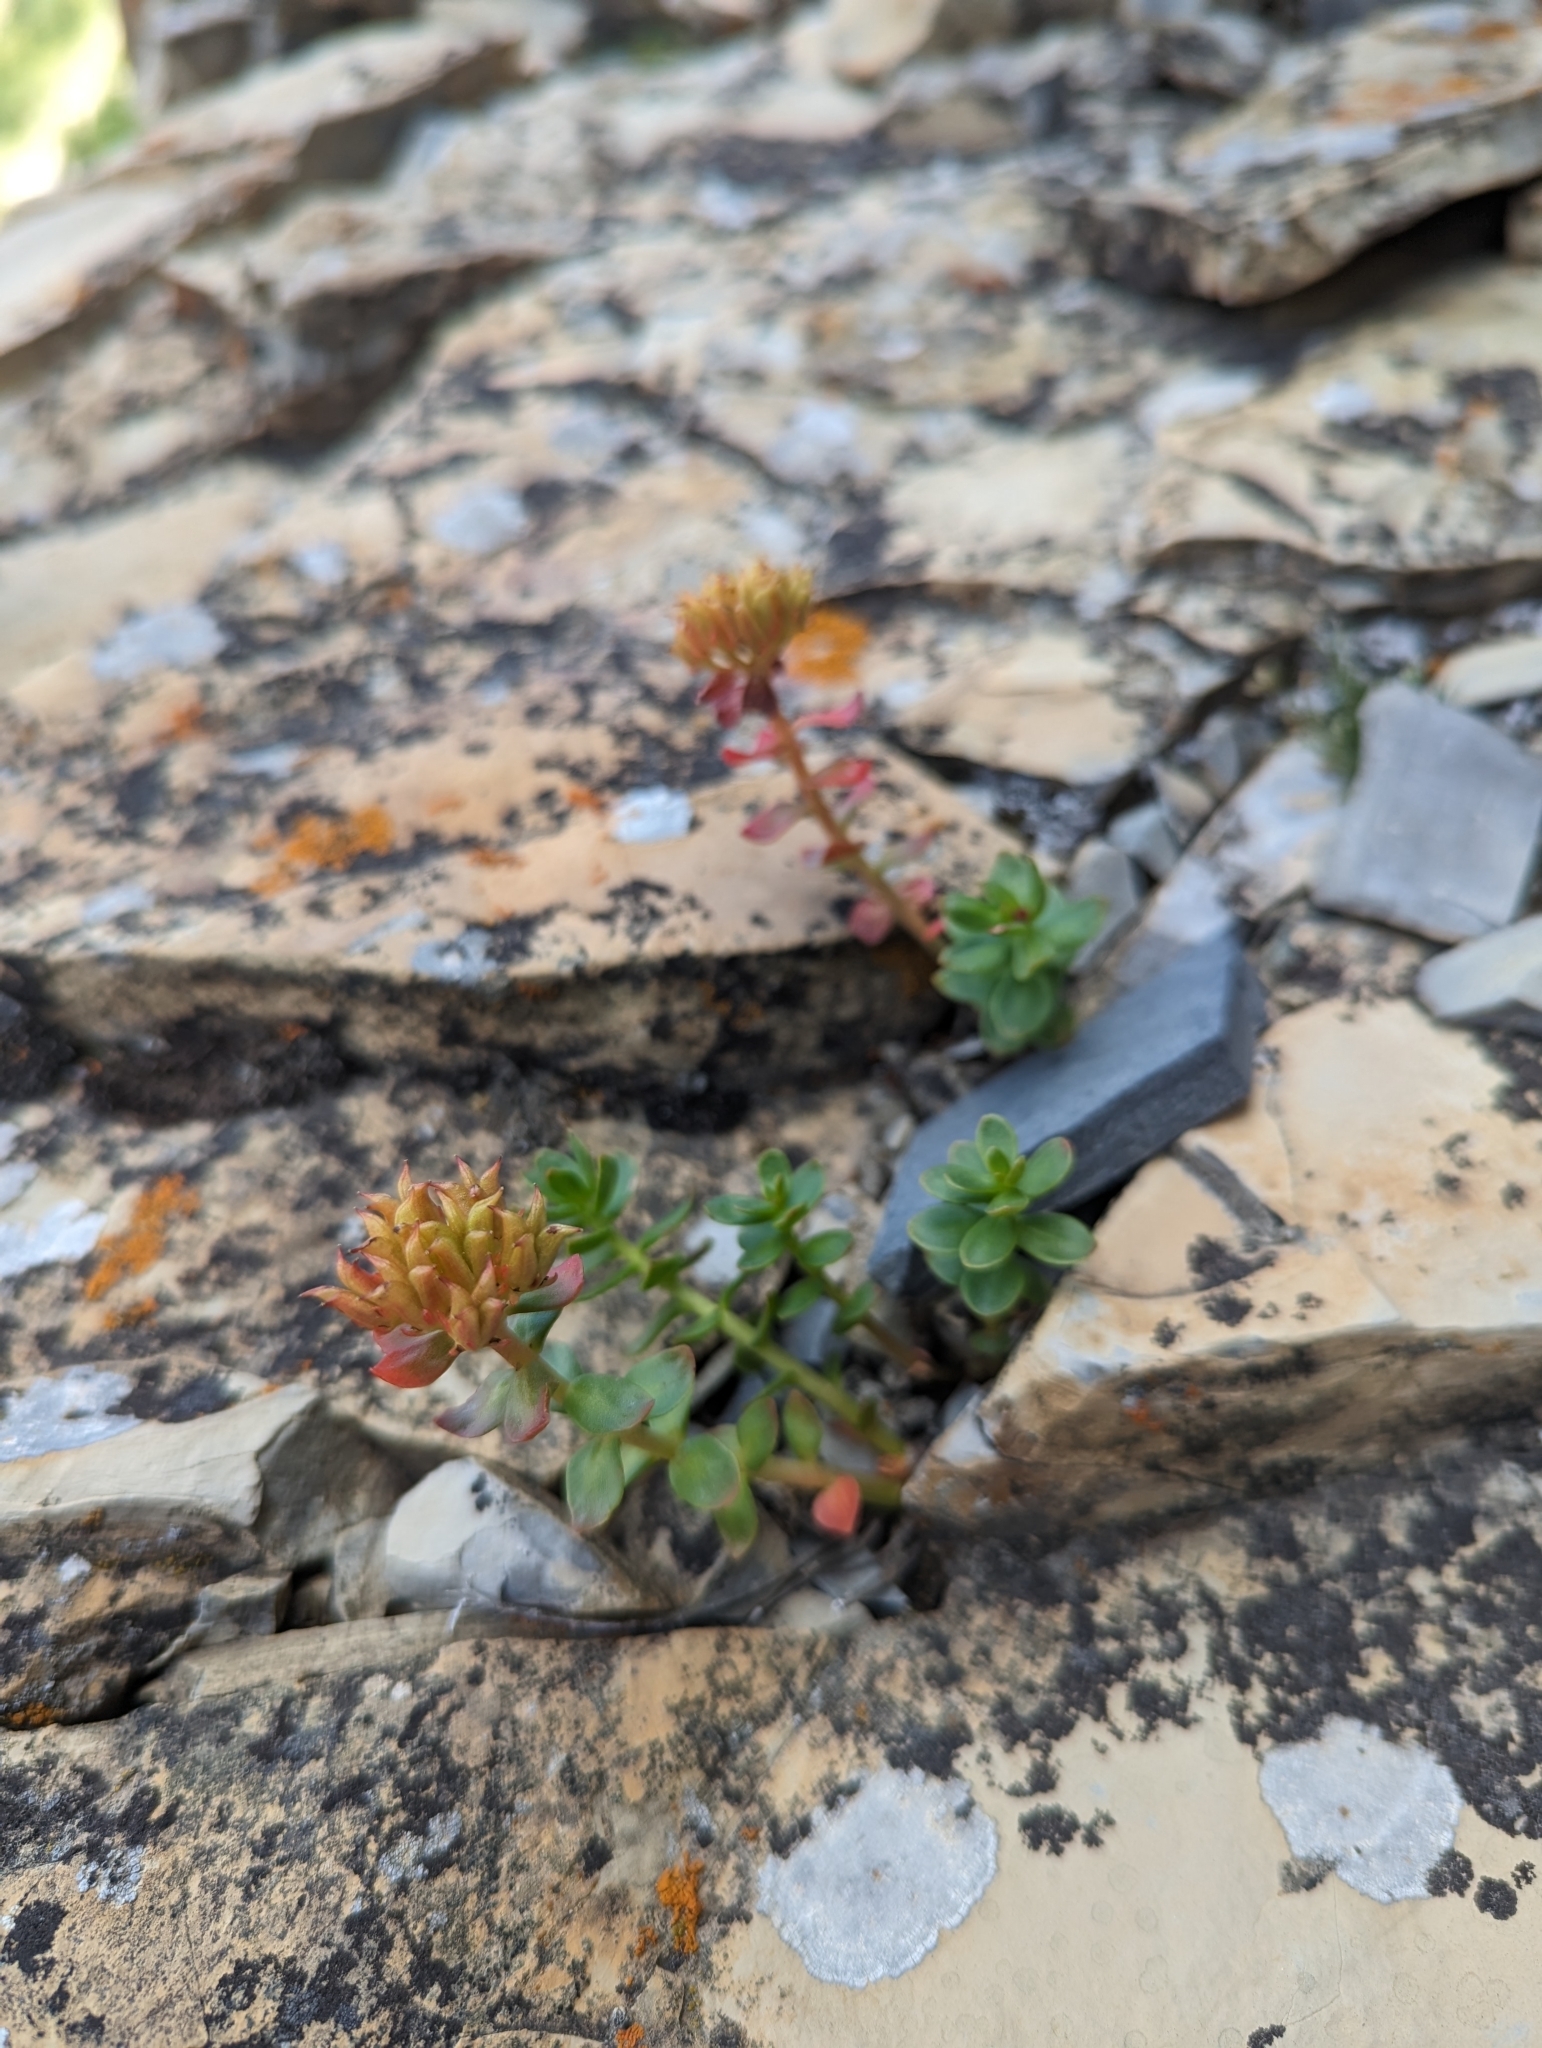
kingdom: Plantae
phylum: Tracheophyta
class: Magnoliopsida
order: Saxifragales
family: Crassulaceae
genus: Rhodiola
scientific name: Rhodiola integrifolia
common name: Western roseroot
